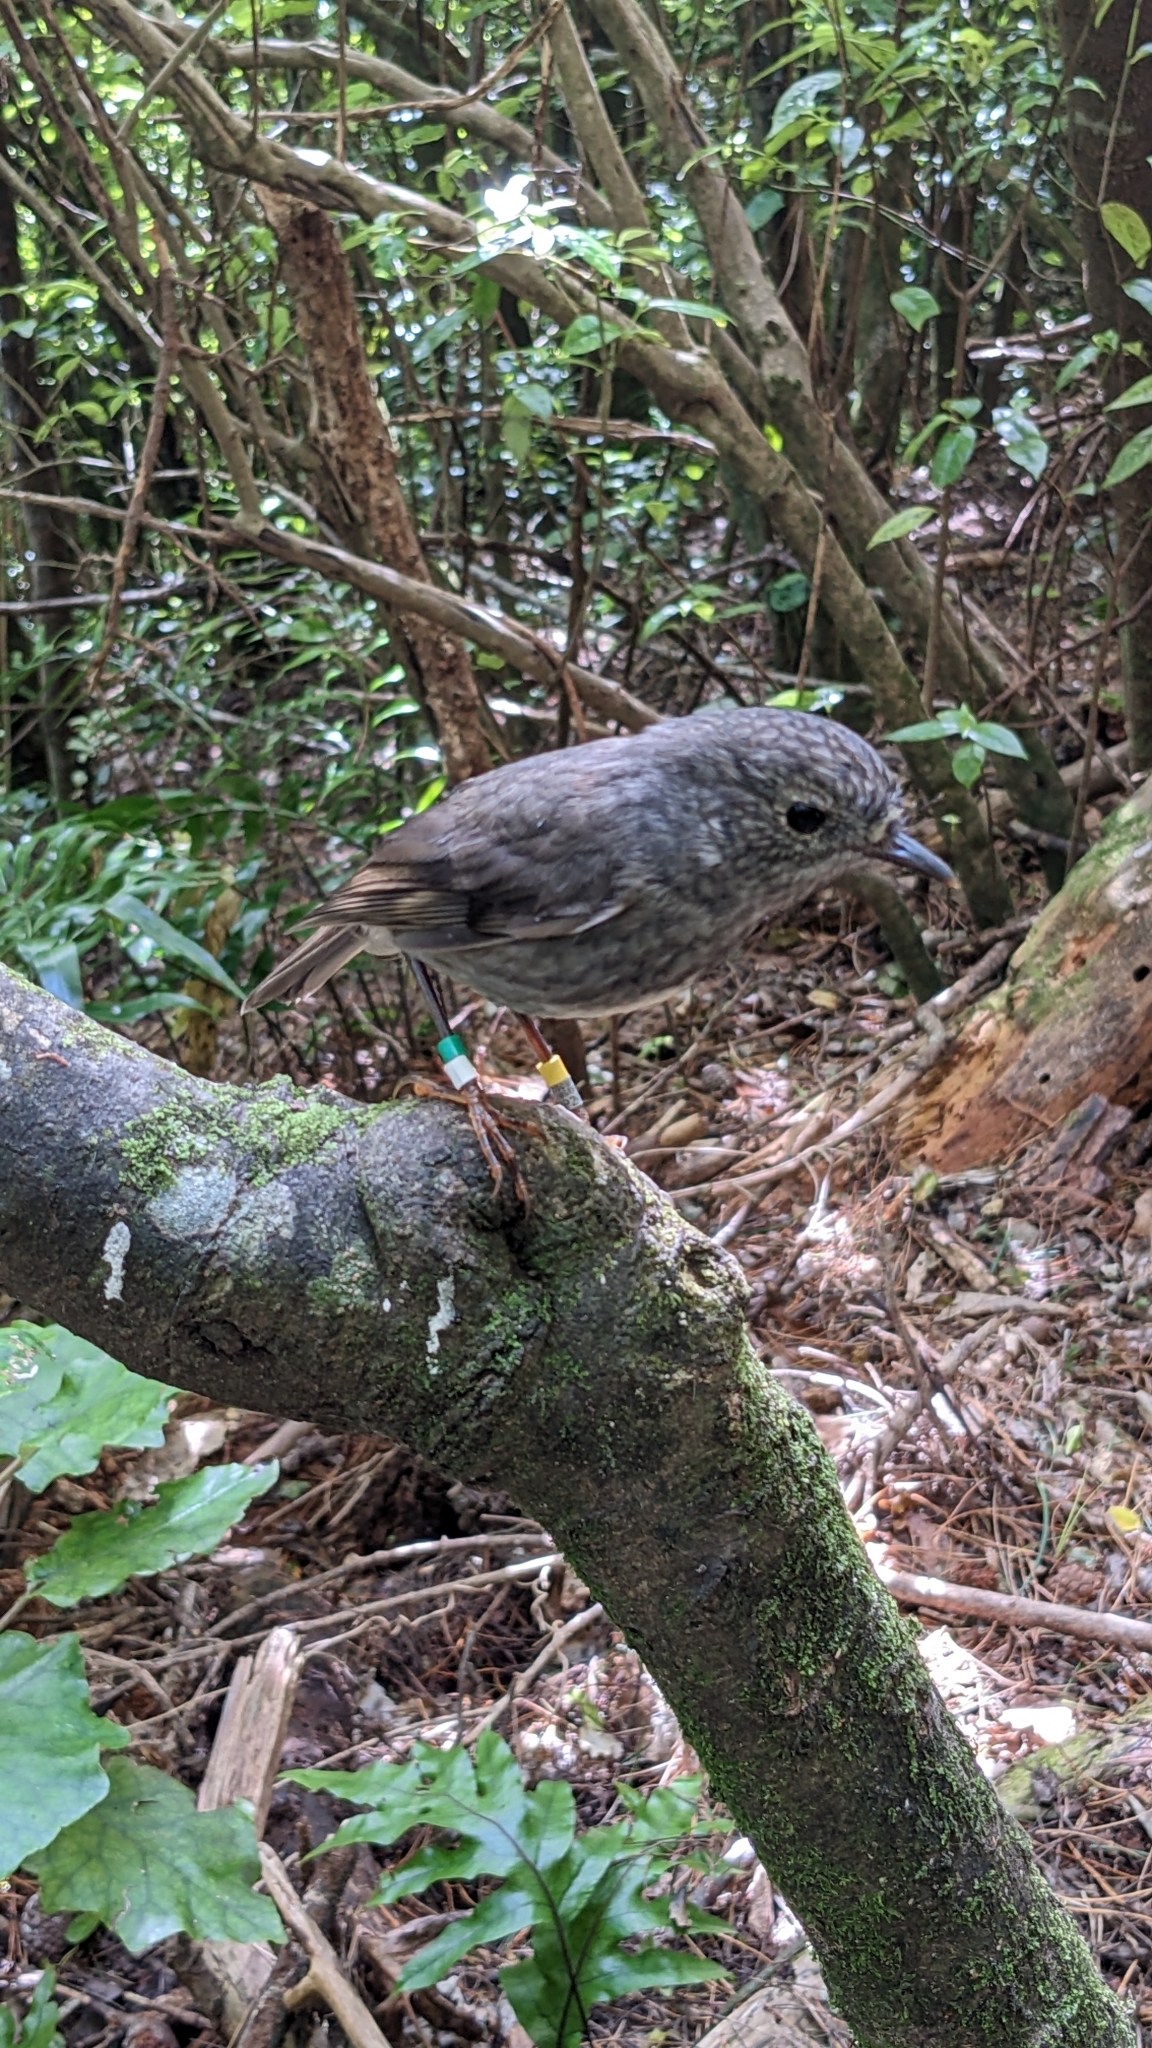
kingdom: Animalia
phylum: Chordata
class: Aves
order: Passeriformes
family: Petroicidae
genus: Petroica
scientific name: Petroica australis
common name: New zealand robin
